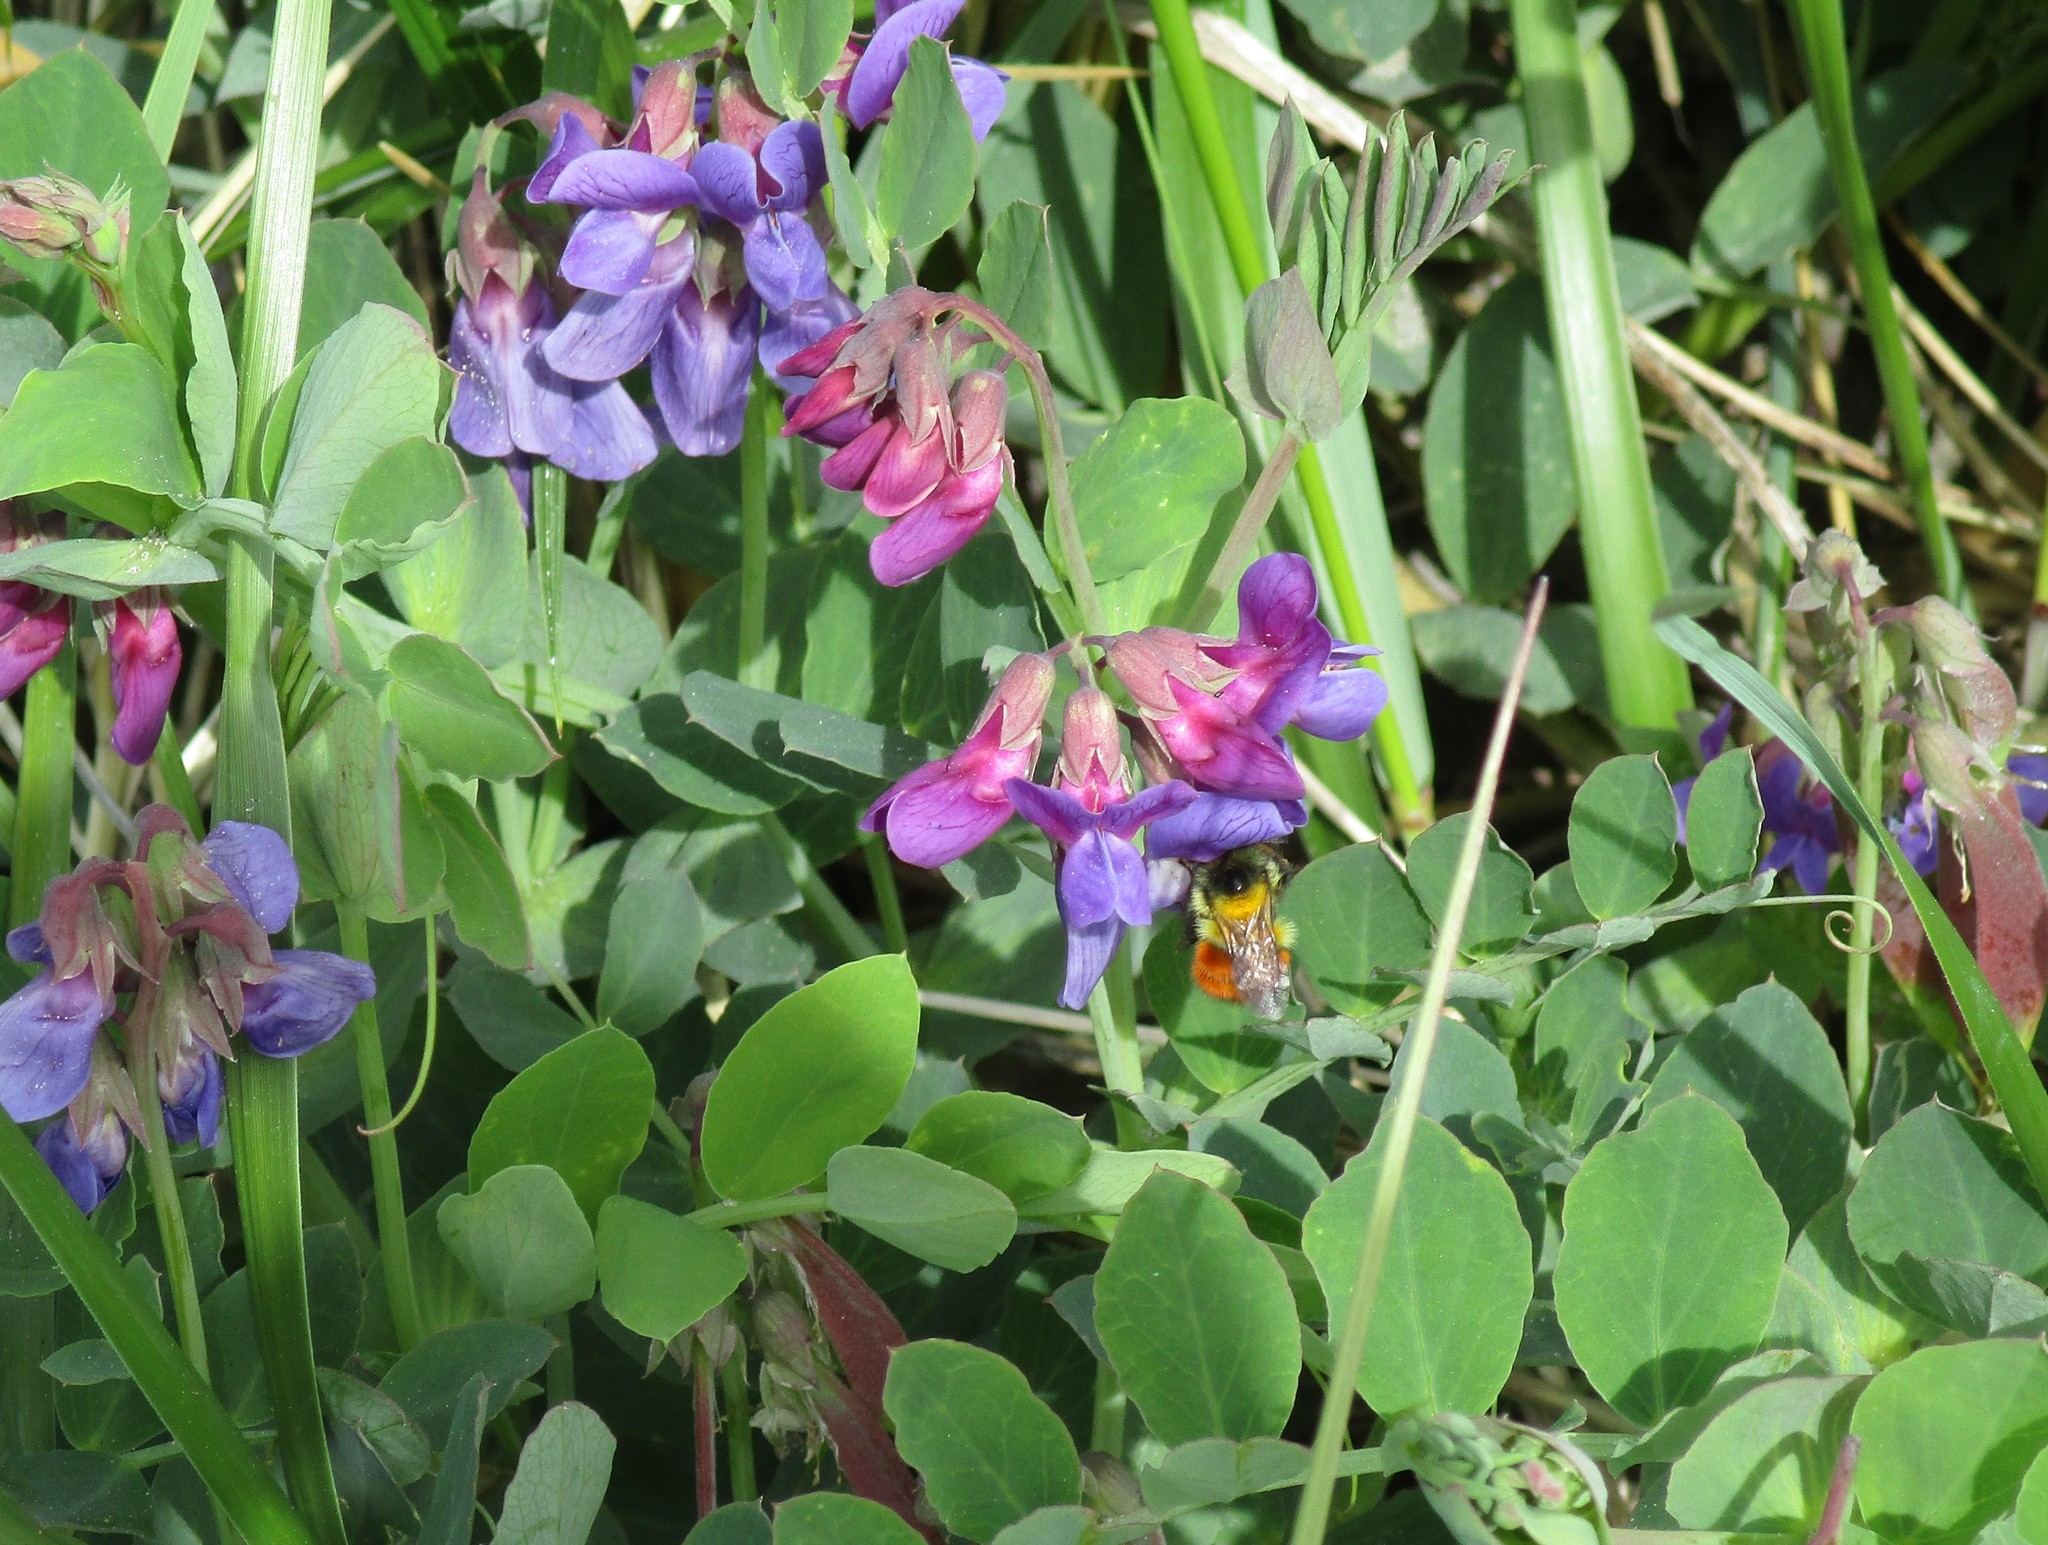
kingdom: Animalia
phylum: Arthropoda
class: Insecta
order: Hymenoptera
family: Apidae
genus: Bombus
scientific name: Bombus melanopygus
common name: Black tail bumble bee
